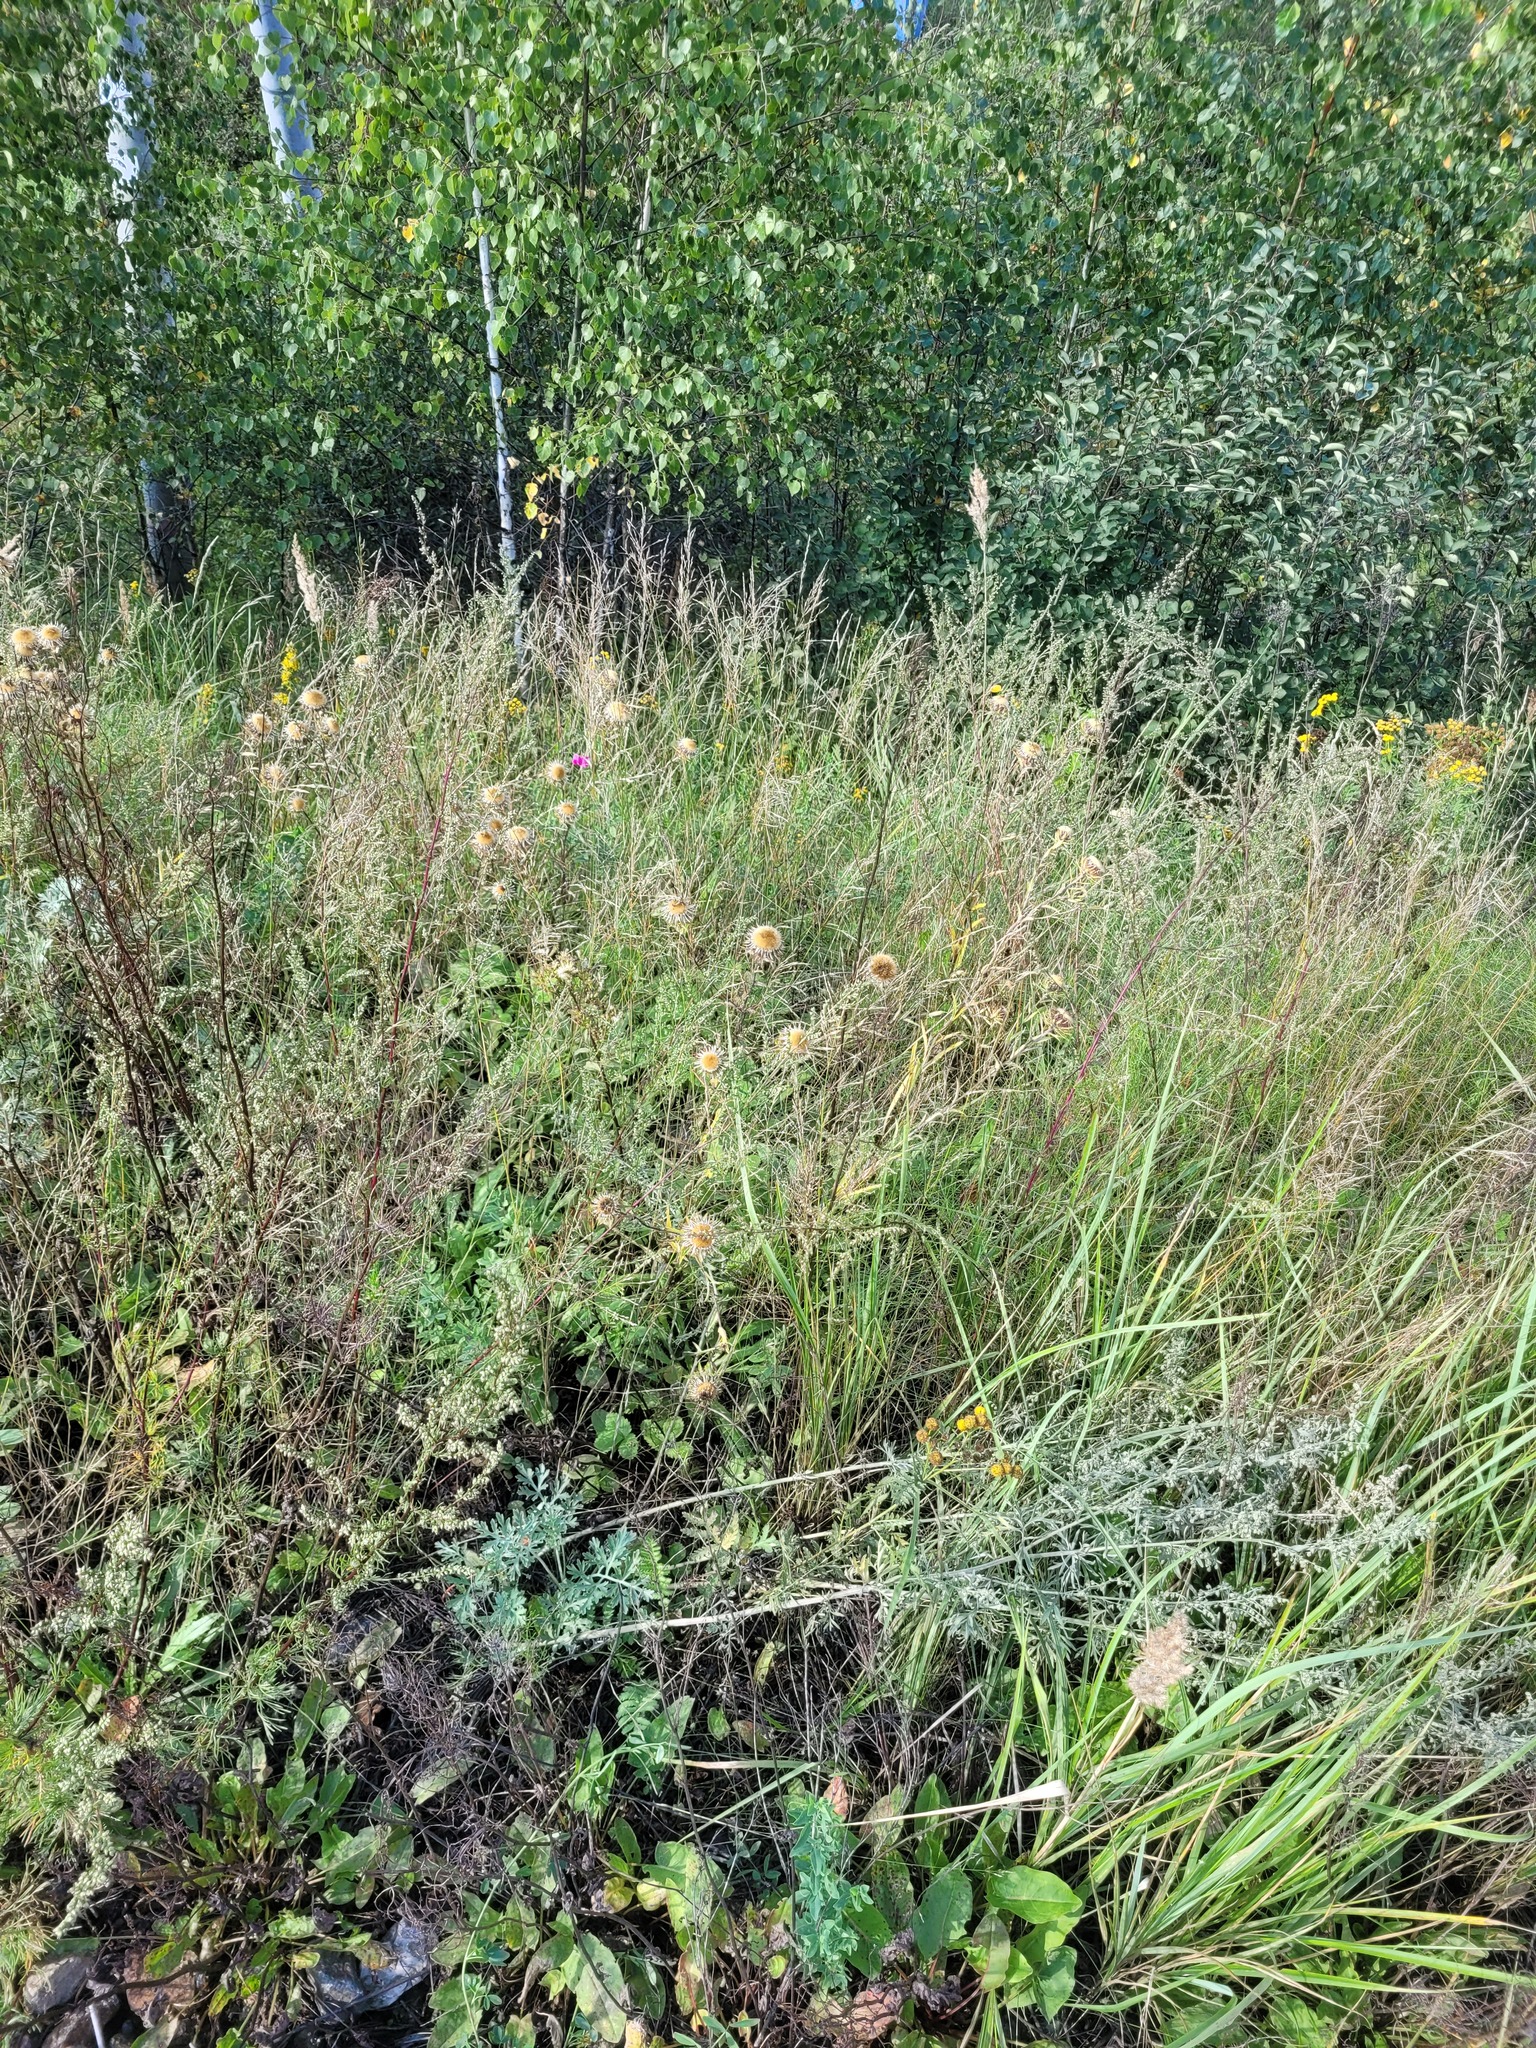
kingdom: Plantae
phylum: Tracheophyta
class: Magnoliopsida
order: Asterales
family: Asteraceae
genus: Carlina
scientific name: Carlina biebersteinii
